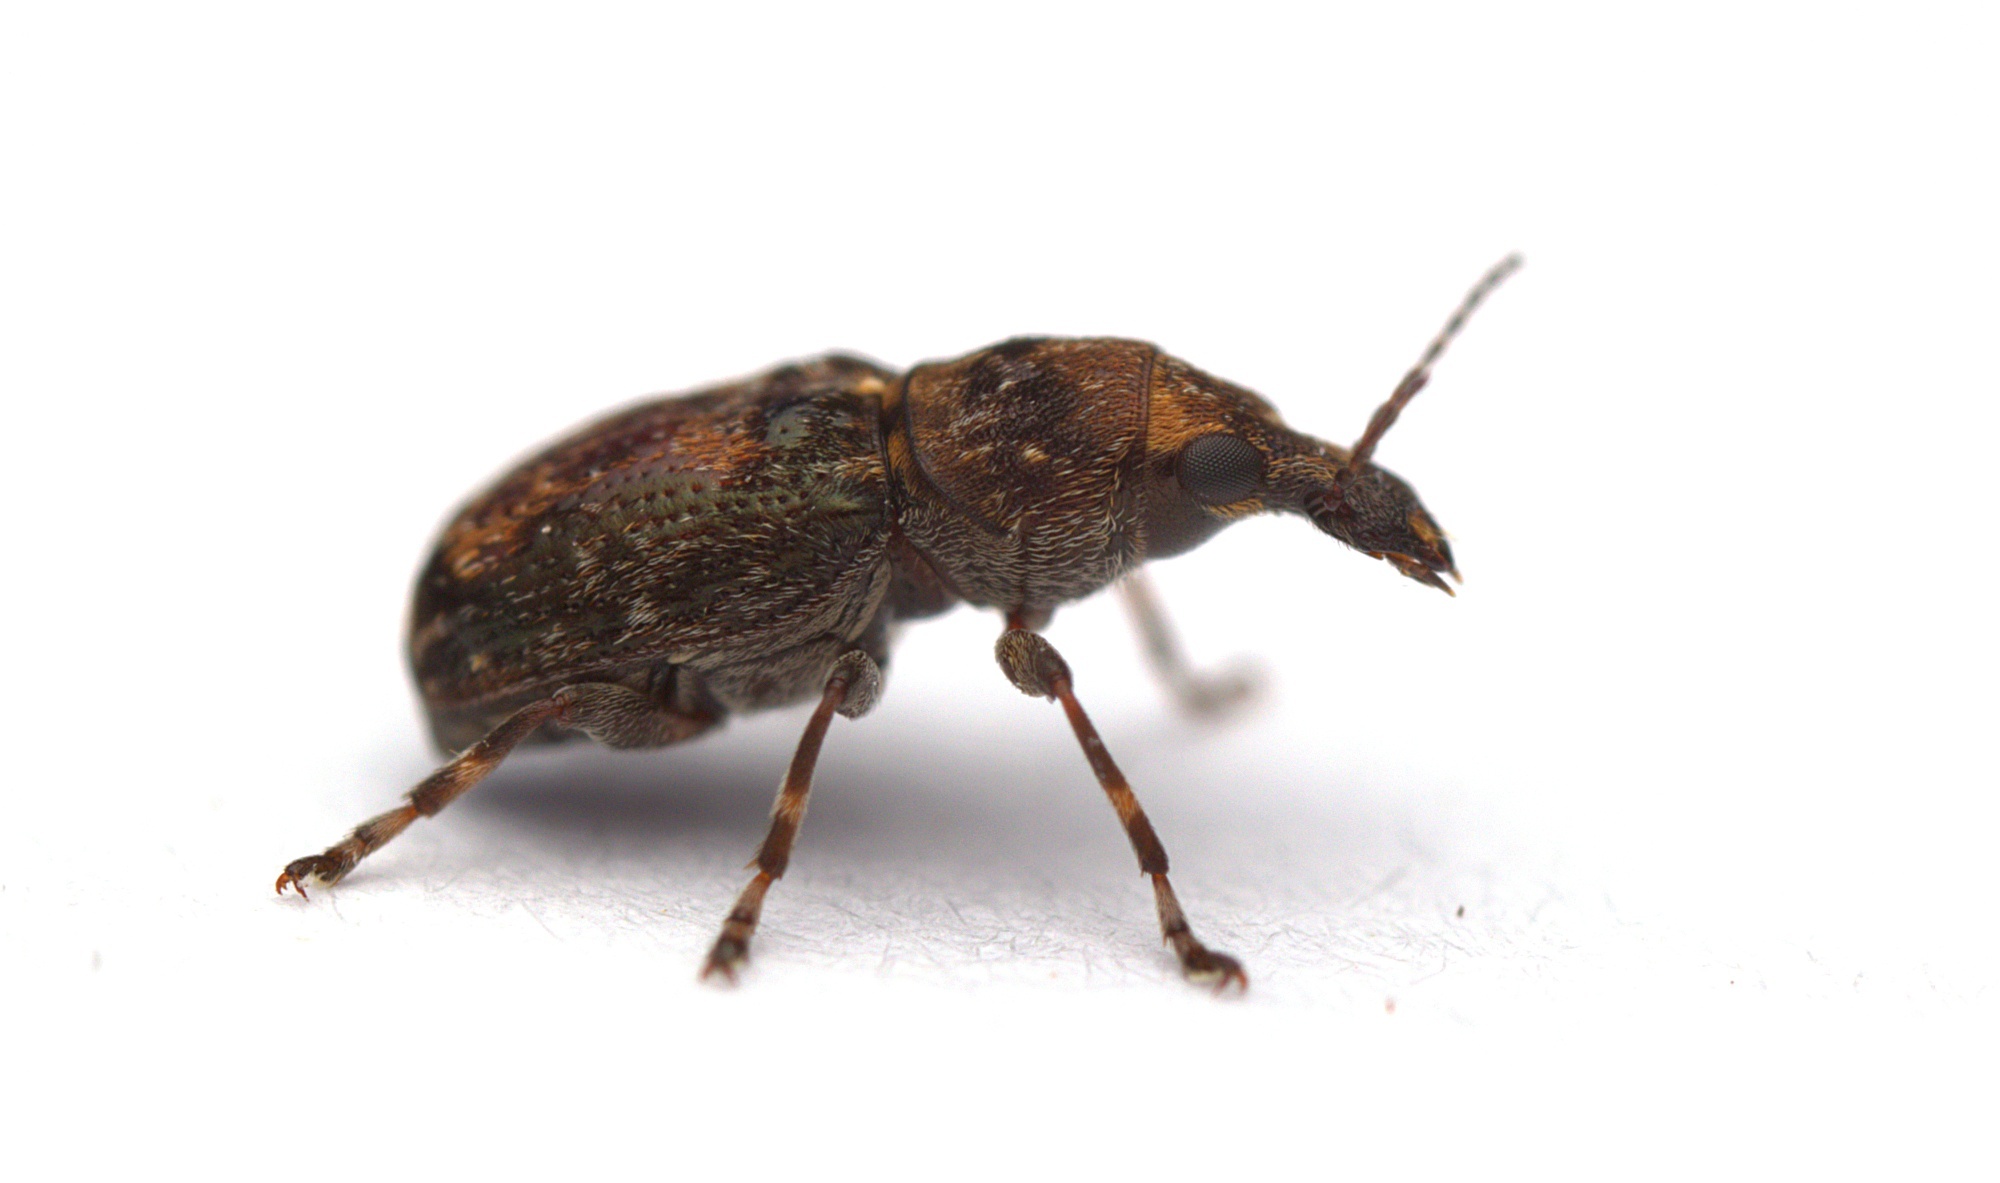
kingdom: Animalia
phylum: Arthropoda
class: Insecta
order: Coleoptera
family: Anthribidae
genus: Sharpius
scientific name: Sharpius
